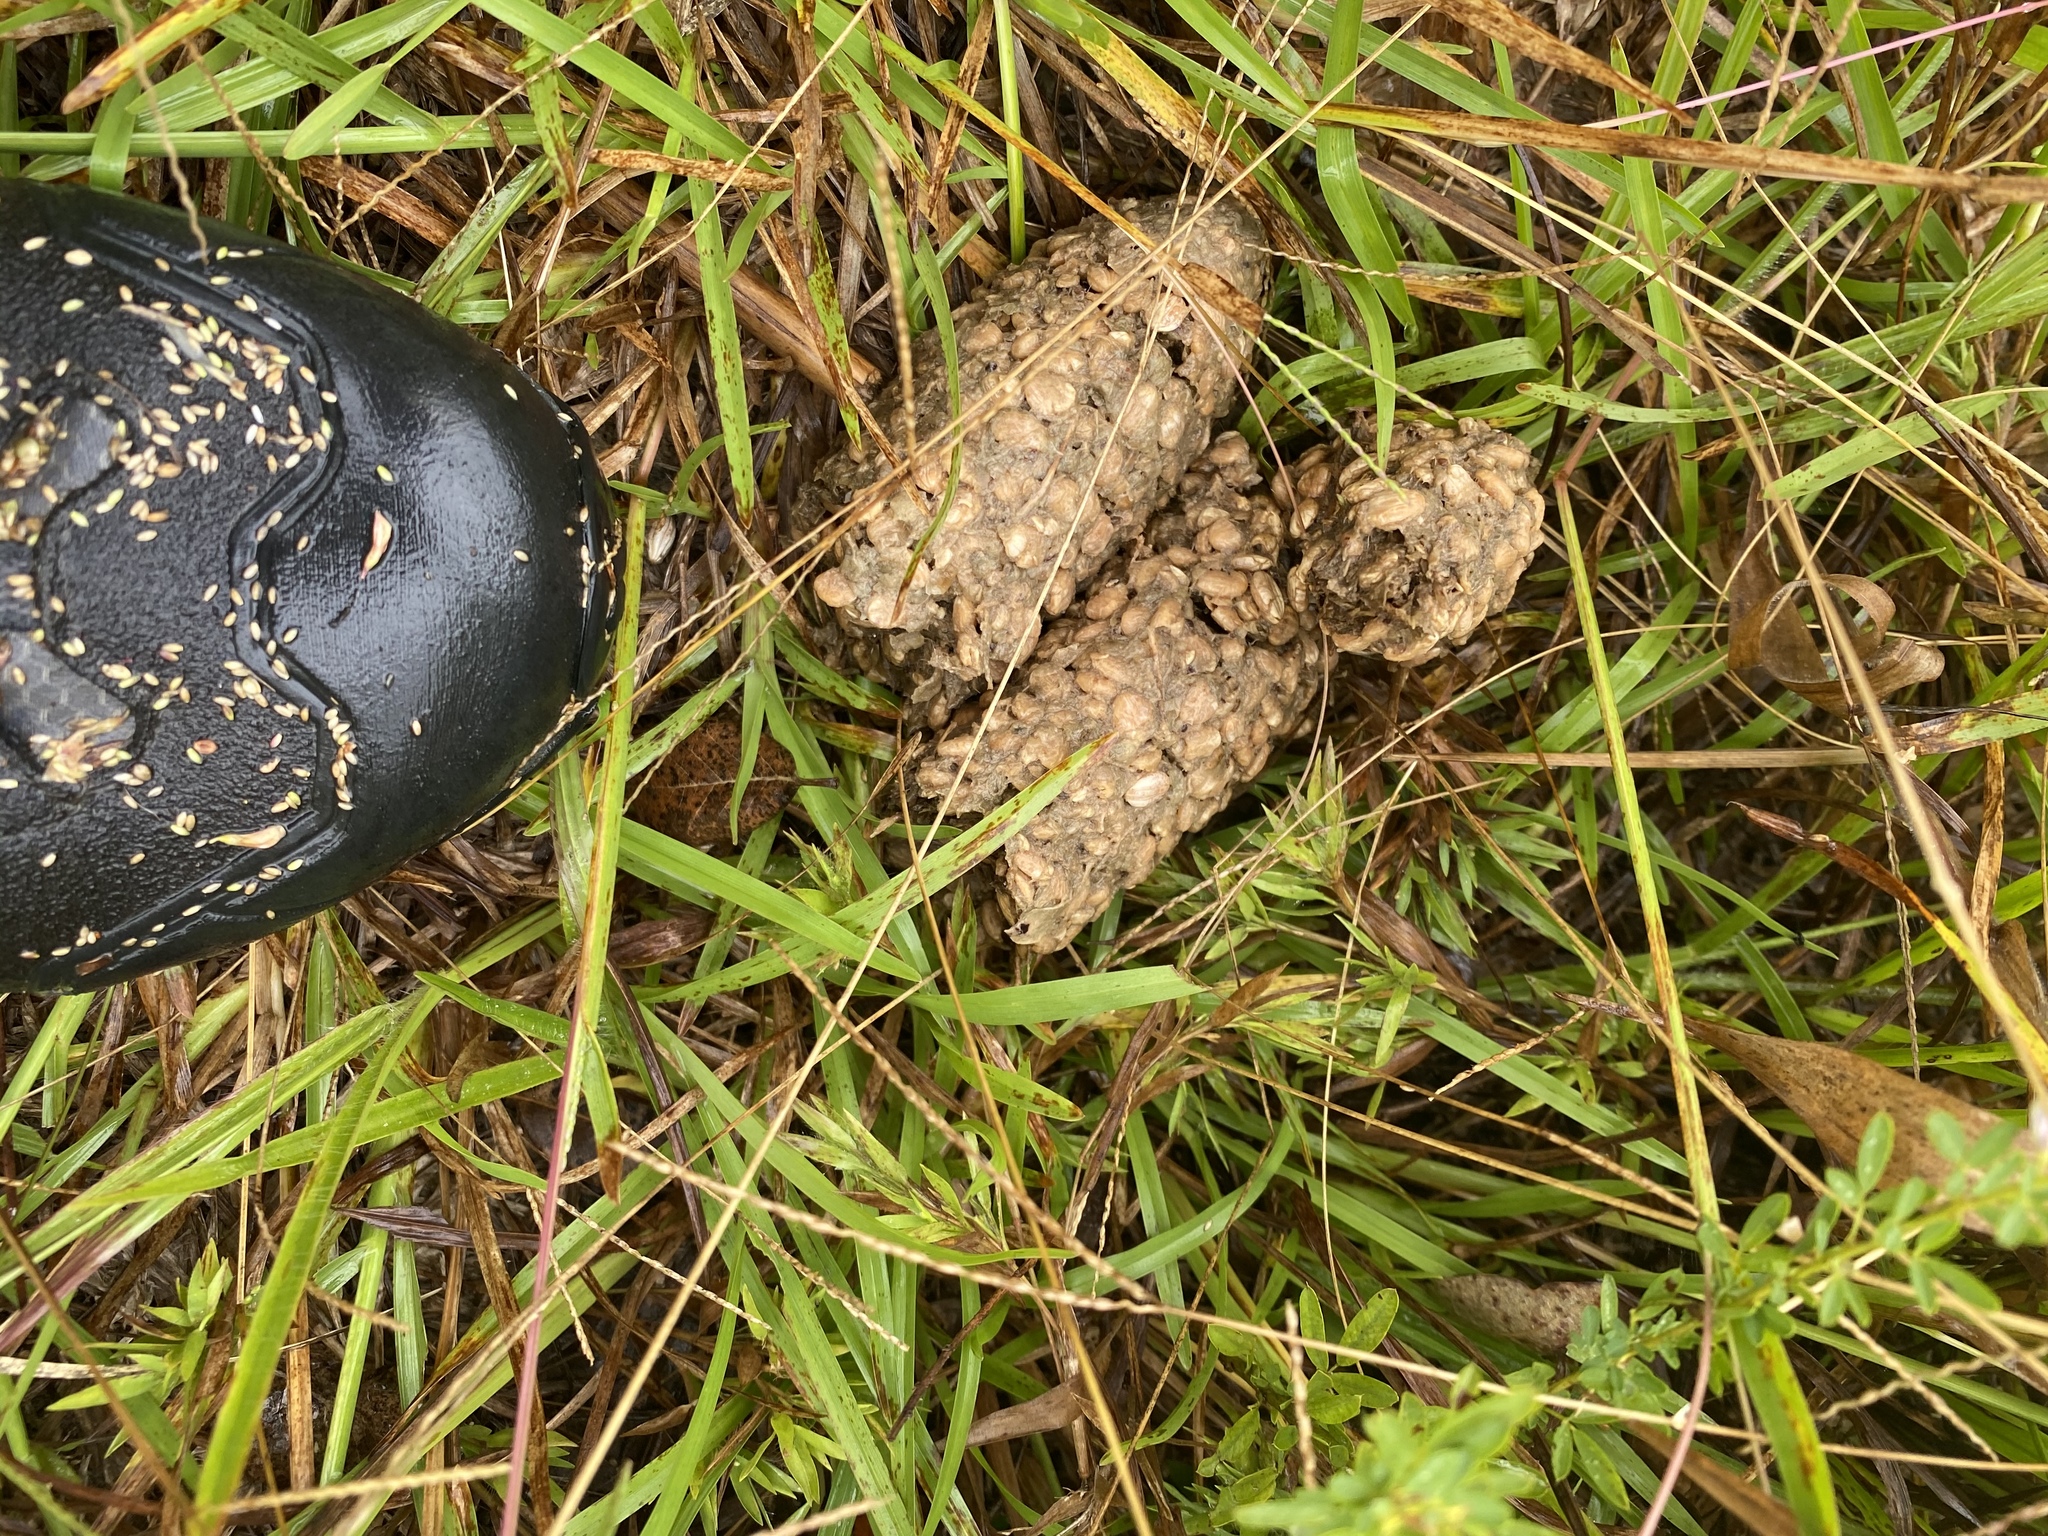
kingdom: Animalia
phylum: Chordata
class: Mammalia
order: Carnivora
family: Ursidae
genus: Ursus
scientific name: Ursus americanus
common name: American black bear
